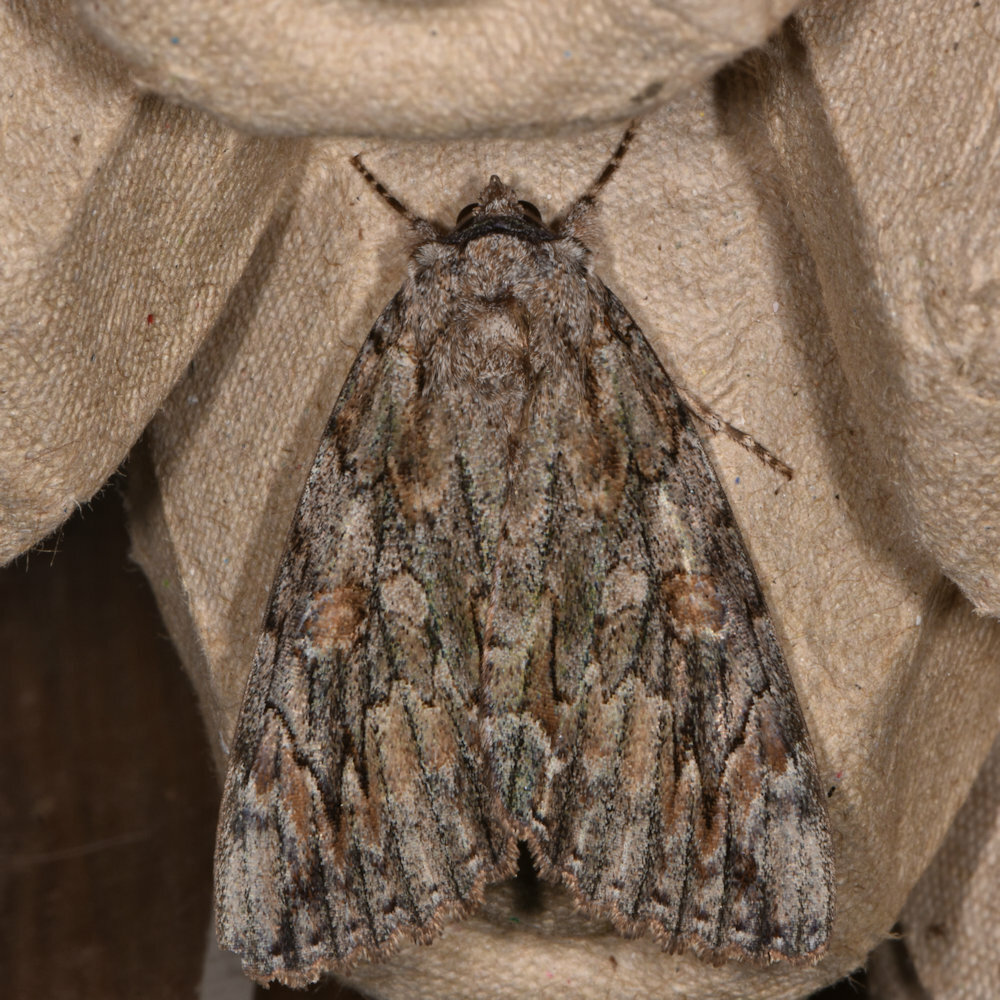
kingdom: Animalia
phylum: Arthropoda
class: Insecta
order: Lepidoptera
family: Erebidae
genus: Catocala
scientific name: Catocala neogama
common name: Bride underwing
